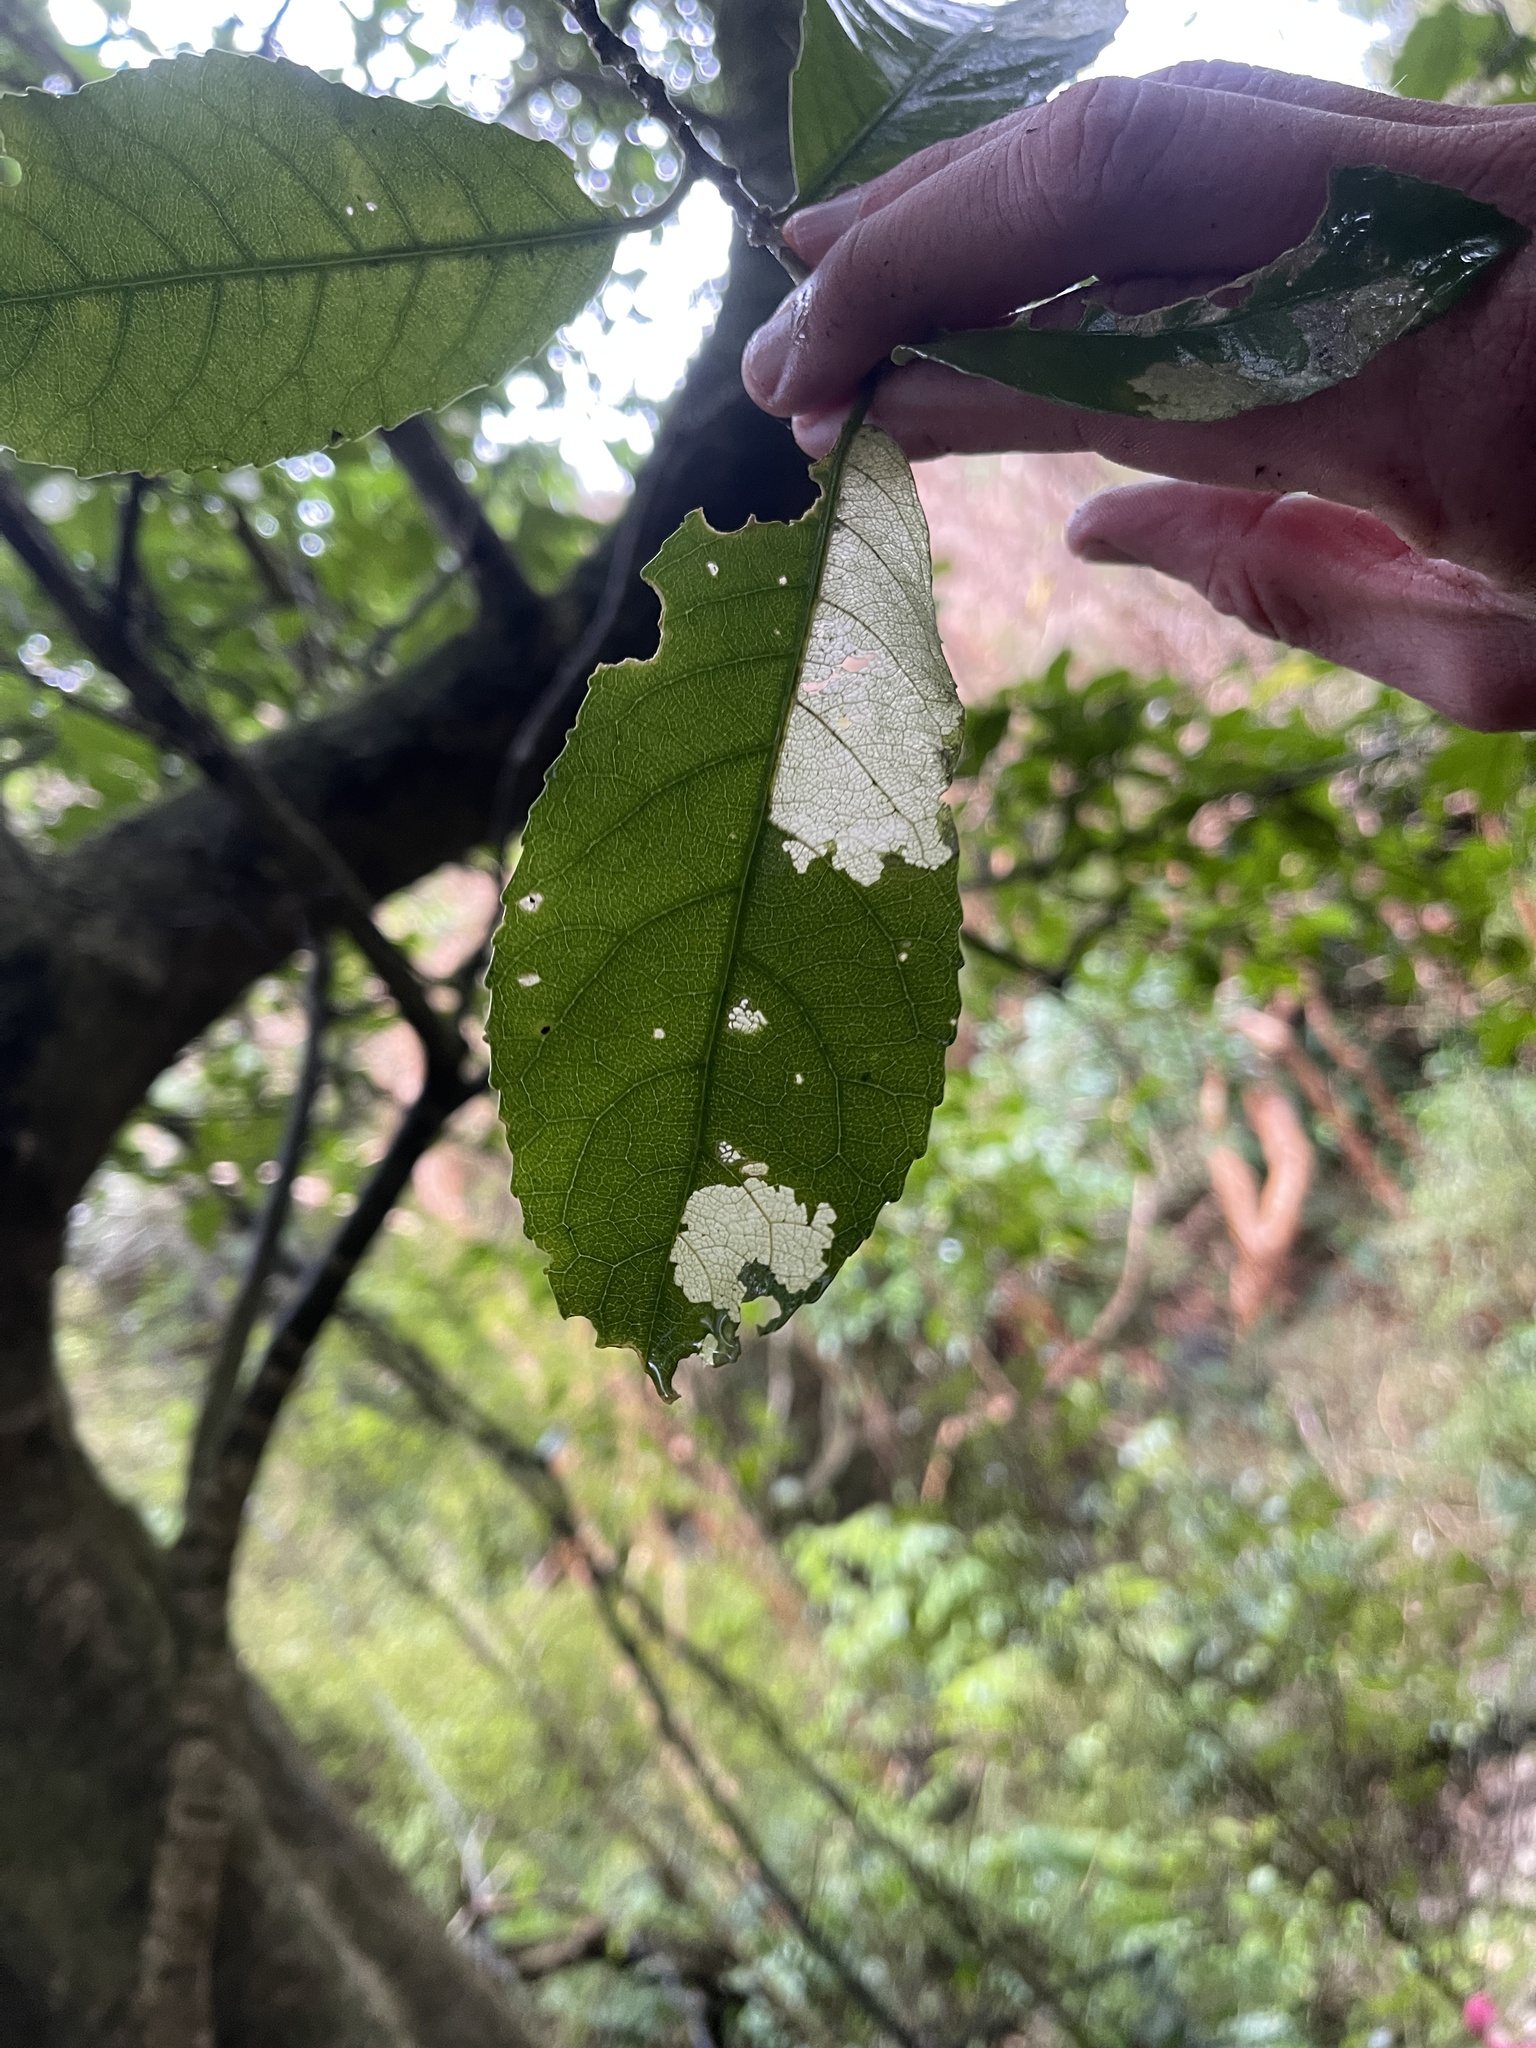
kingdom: Plantae
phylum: Tracheophyta
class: Magnoliopsida
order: Malpighiales
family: Violaceae
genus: Melicytus
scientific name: Melicytus ramiflorus
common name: Mahoe
